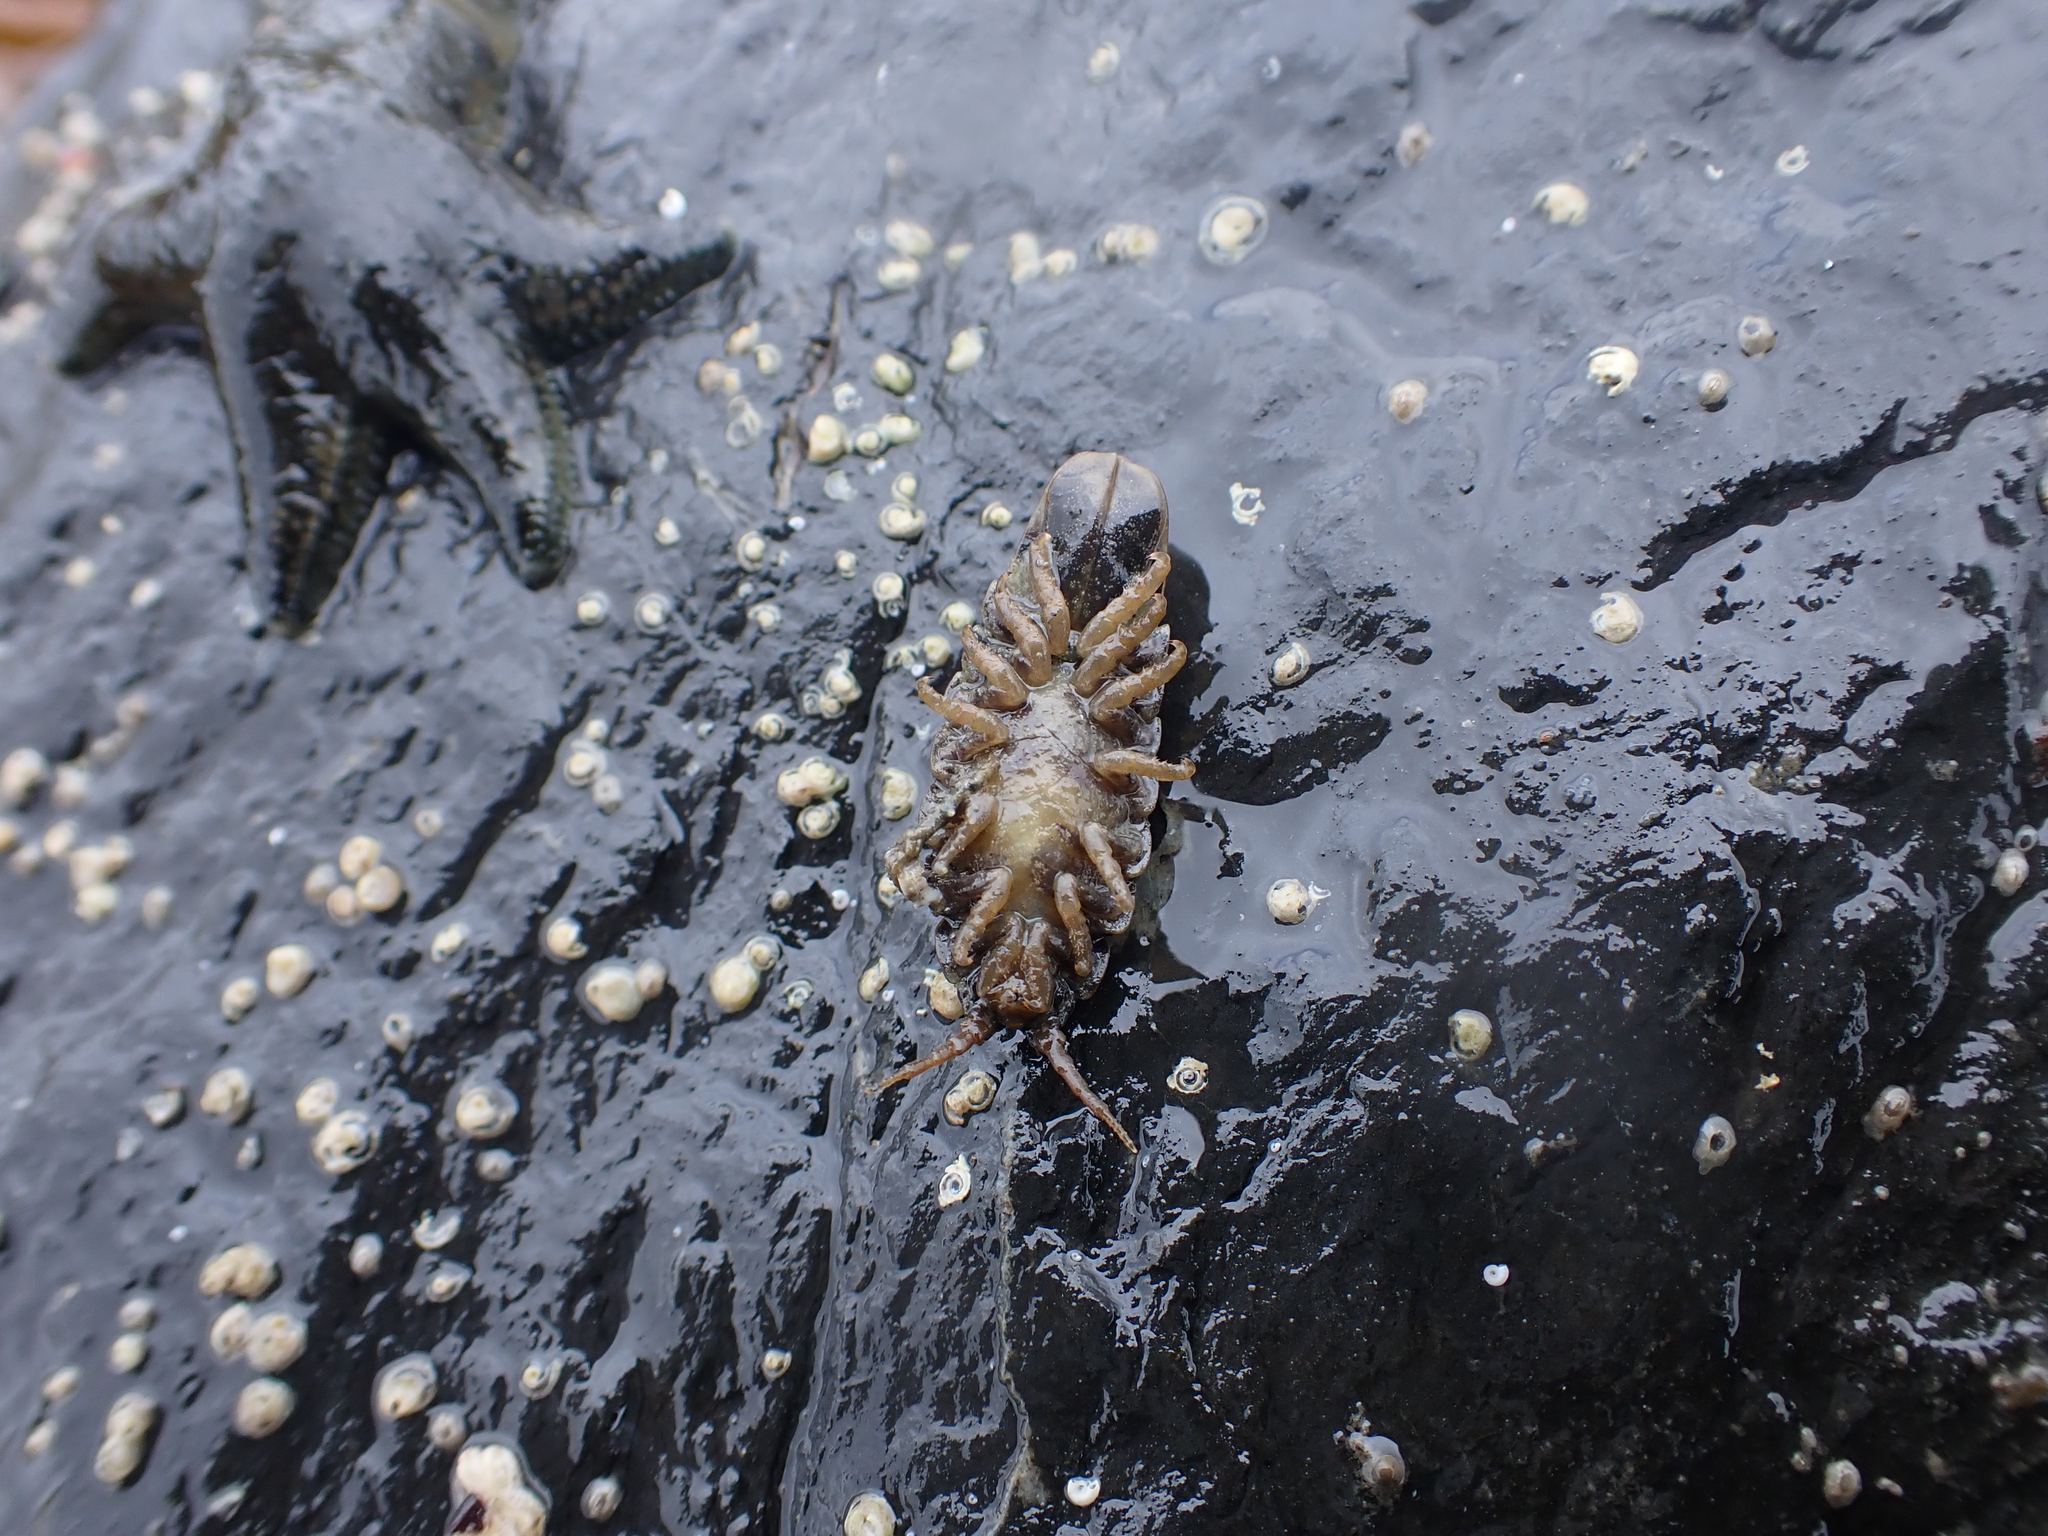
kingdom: Animalia
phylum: Arthropoda
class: Malacostraca
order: Isopoda
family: Idoteidae
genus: Pentidotea
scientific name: Pentidotea wosnesenskii
